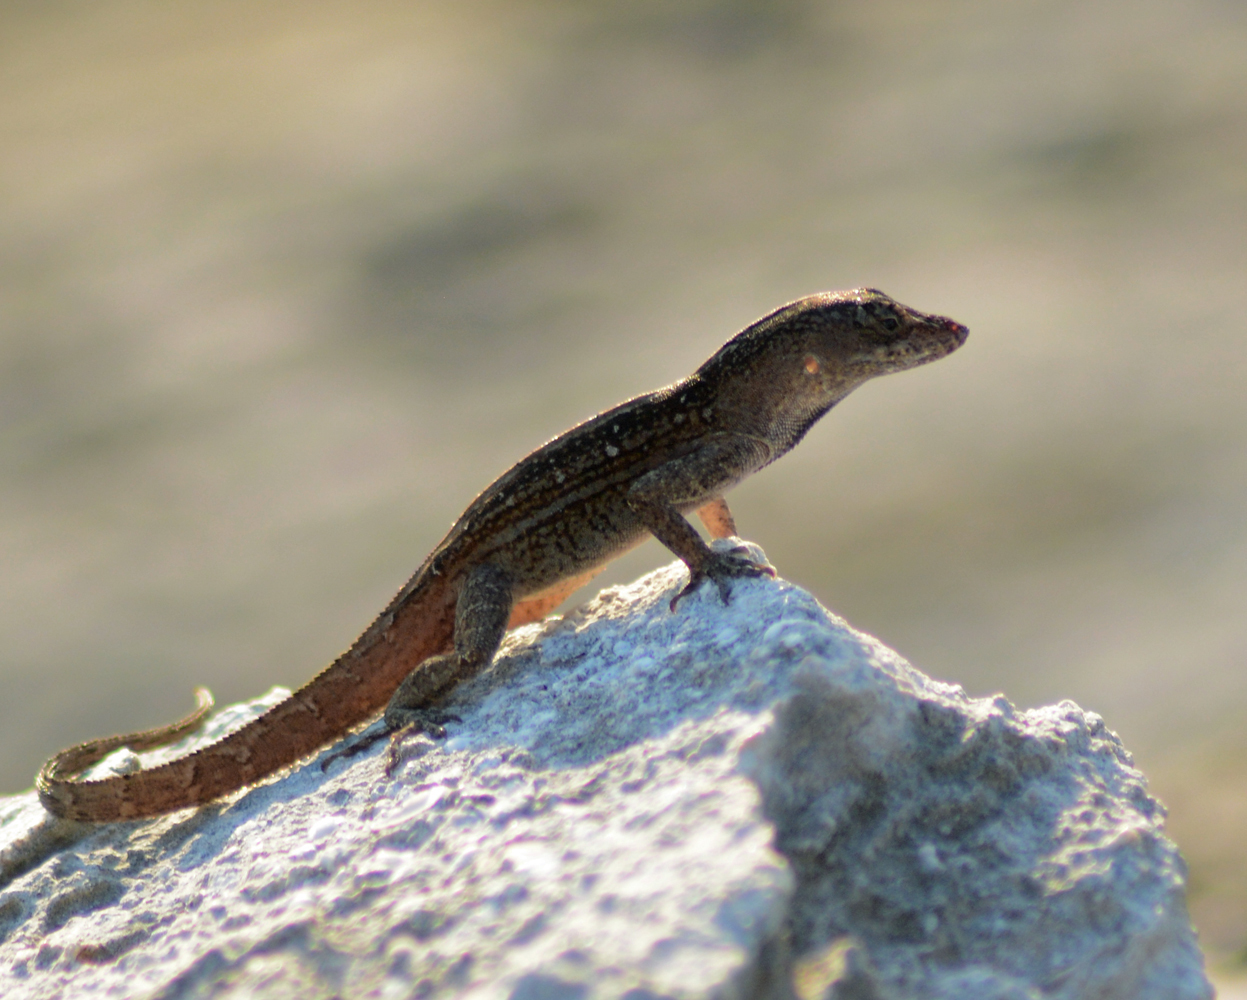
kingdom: Animalia
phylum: Chordata
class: Squamata
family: Dactyloidae
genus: Anolis
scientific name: Anolis sagrei
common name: Brown anole
